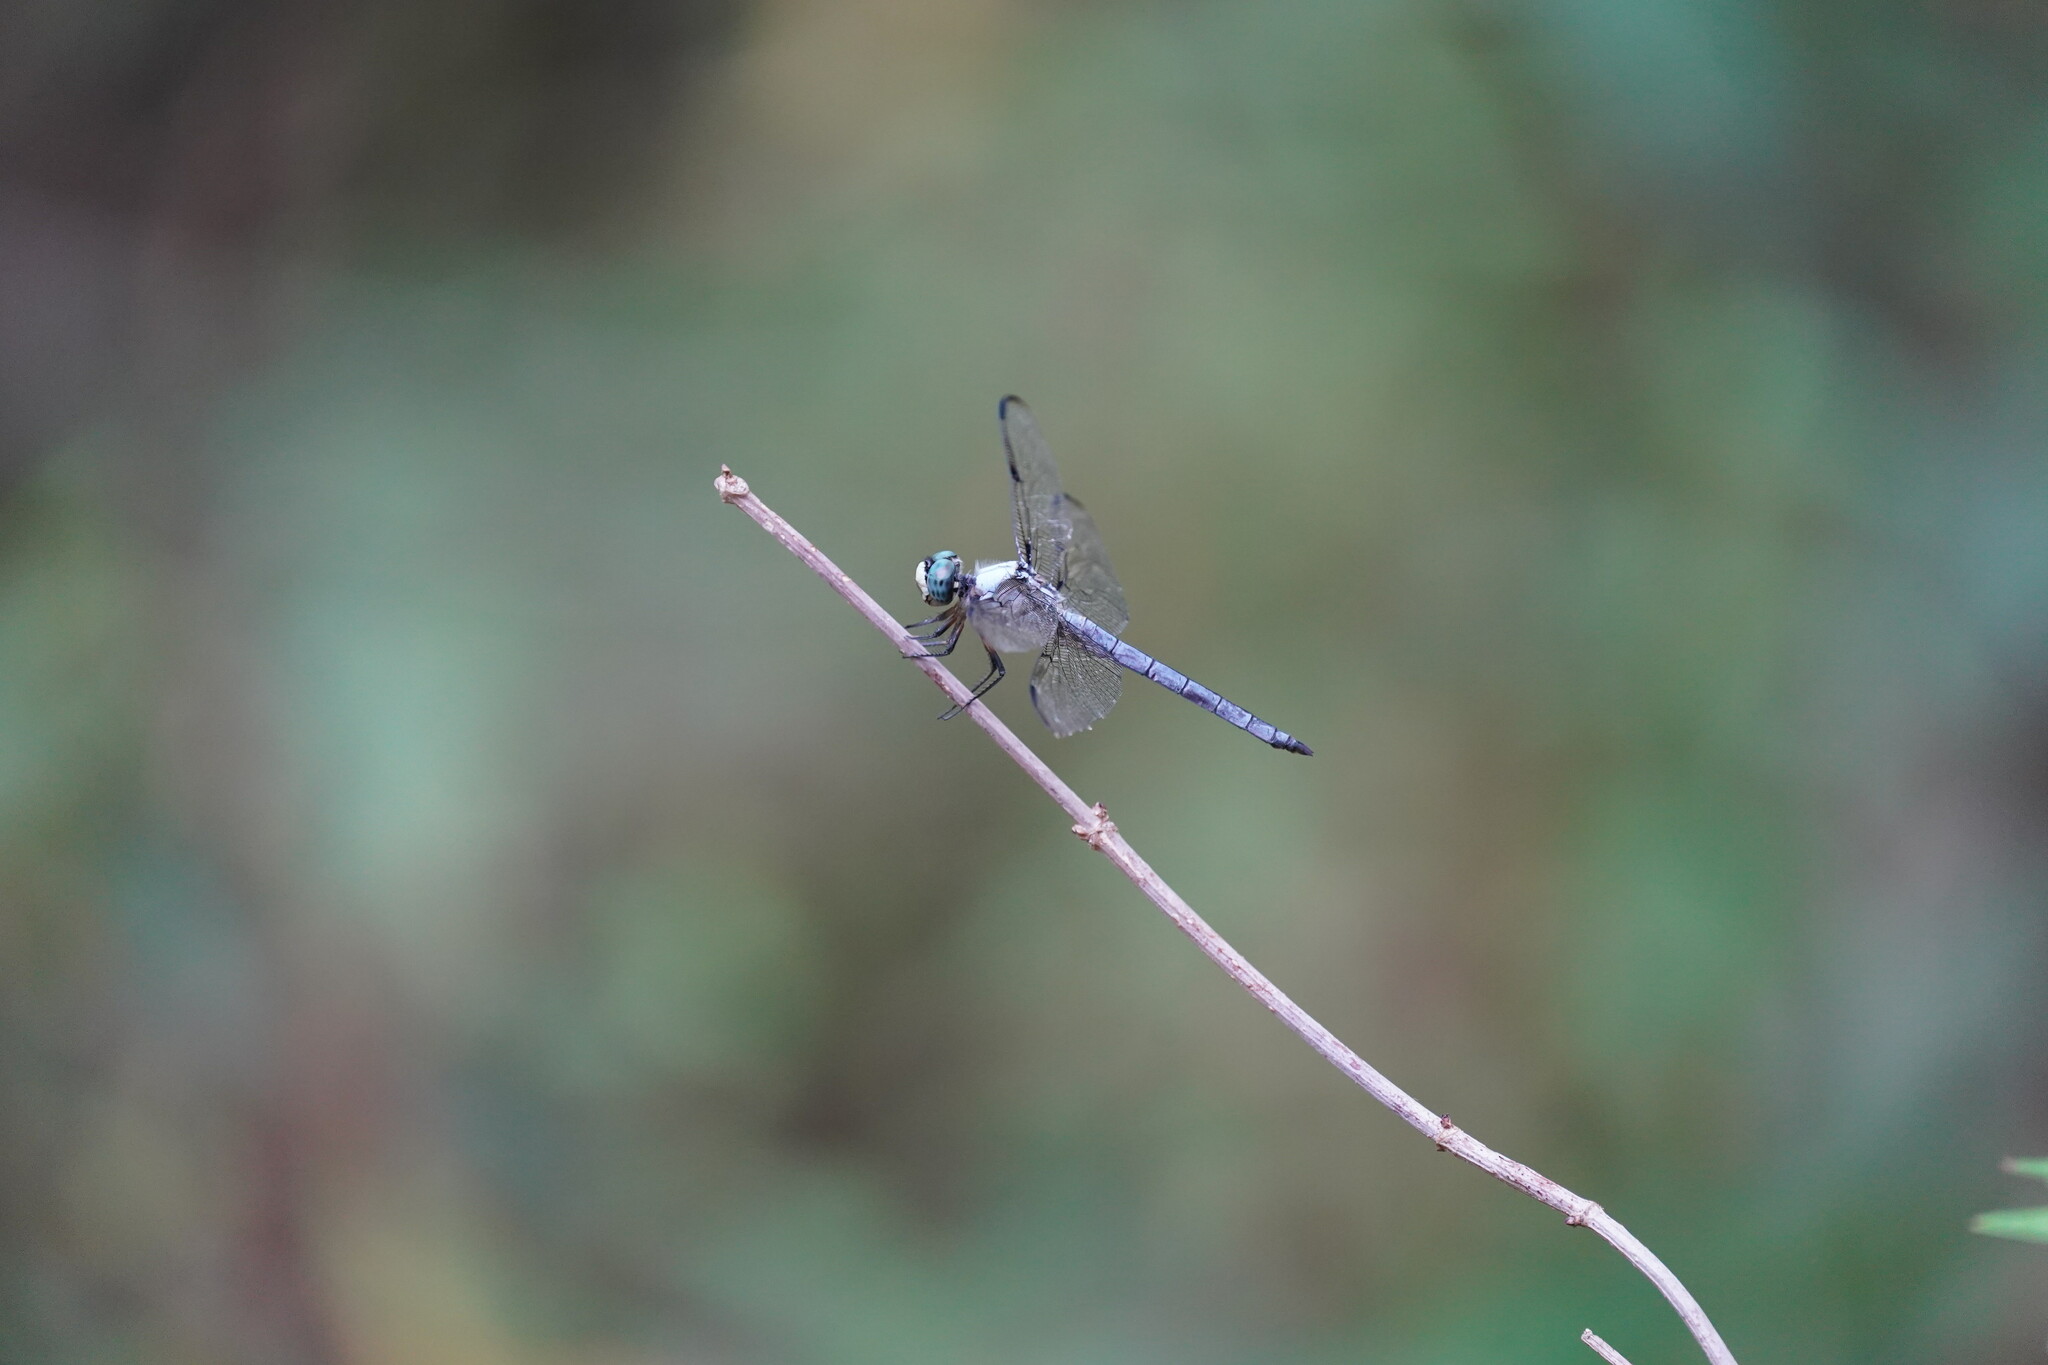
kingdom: Animalia
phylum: Arthropoda
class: Insecta
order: Odonata
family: Libellulidae
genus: Libellula
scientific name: Libellula vibrans
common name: Great blue skimmer
